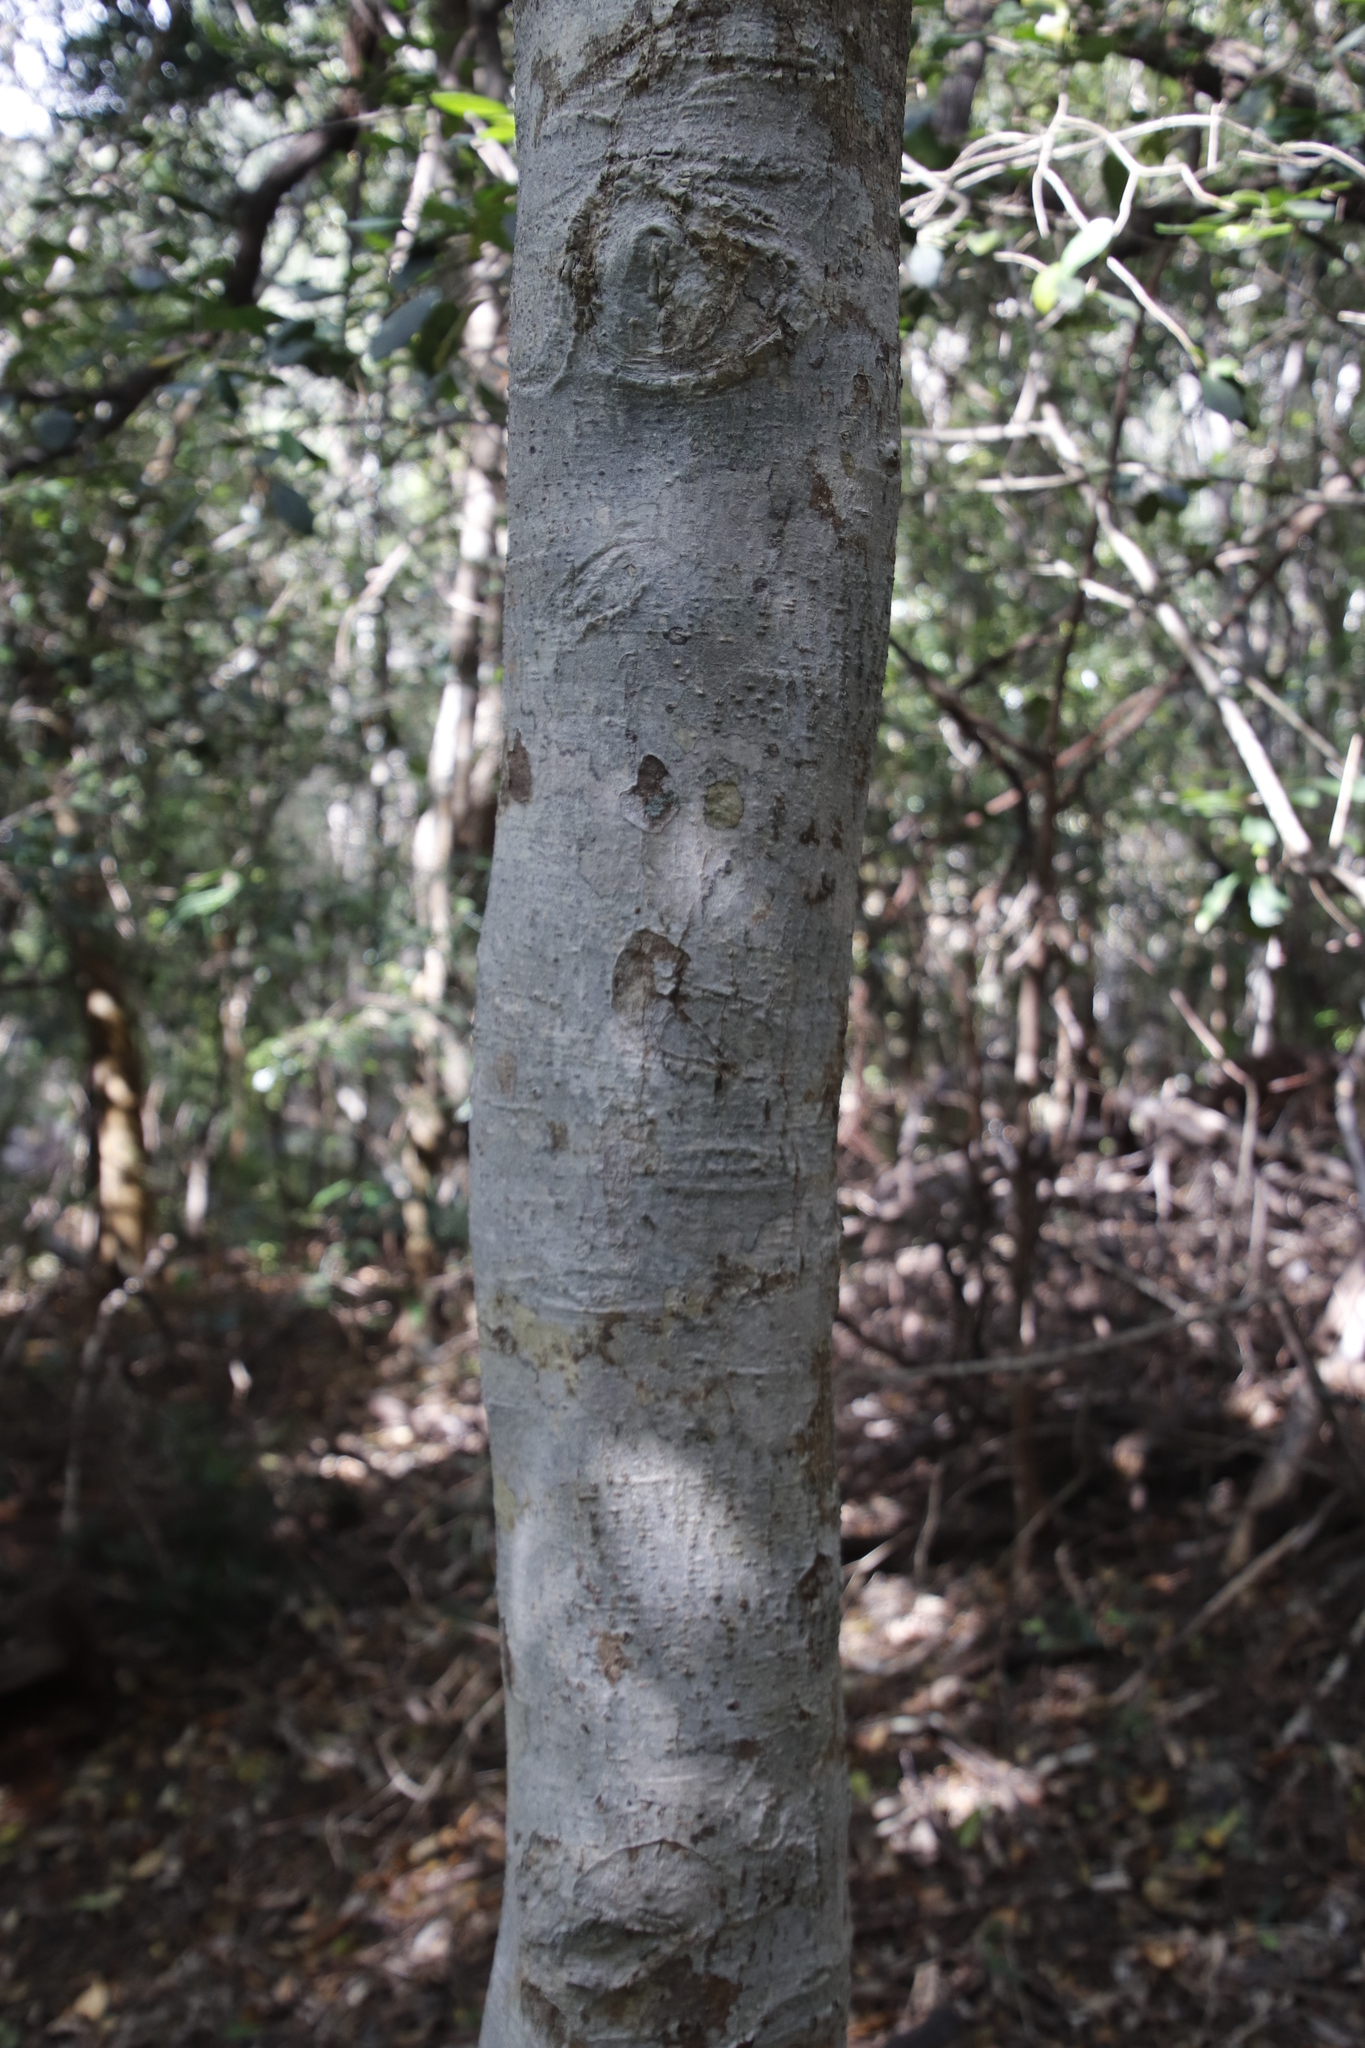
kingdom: Plantae
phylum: Tracheophyta
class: Magnoliopsida
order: Aquifoliales
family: Aquifoliaceae
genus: Ilex
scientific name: Ilex mitis
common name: African holly
